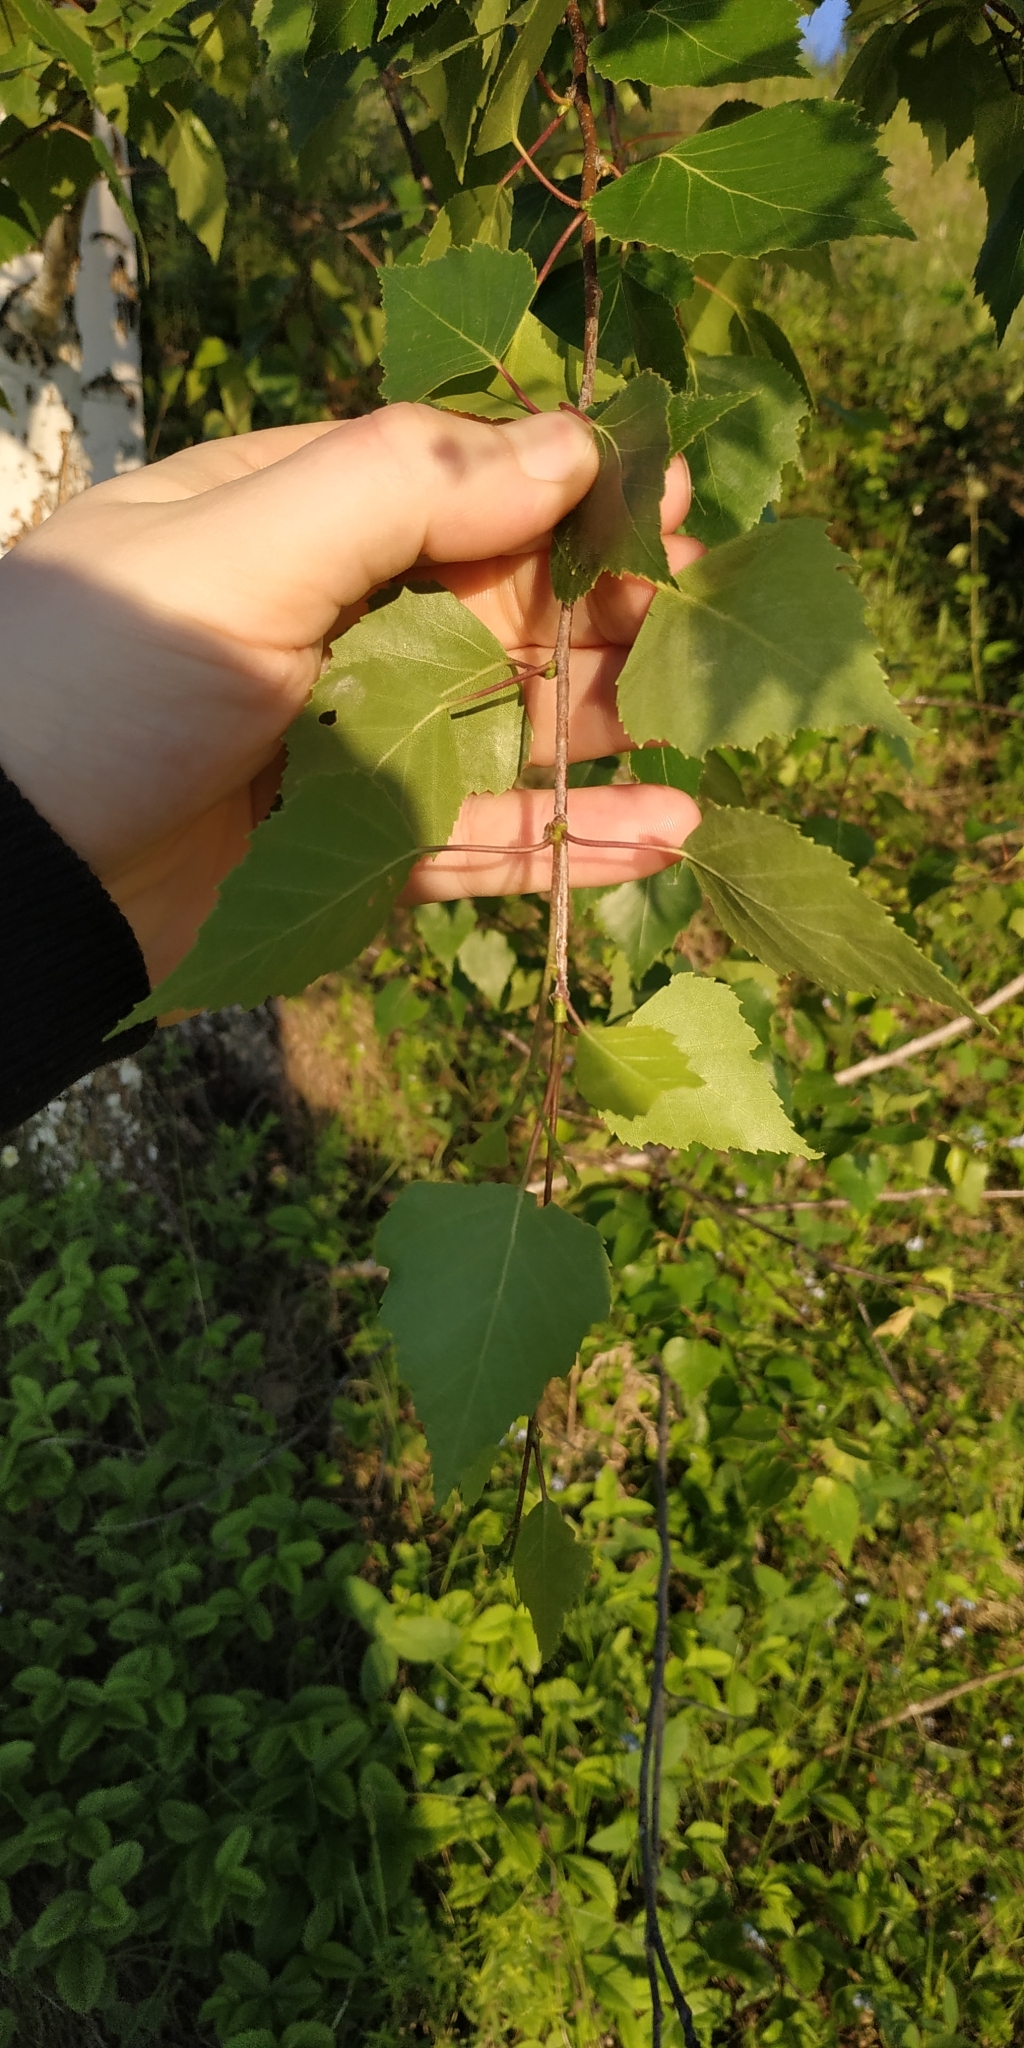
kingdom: Plantae
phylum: Tracheophyta
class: Magnoliopsida
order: Fagales
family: Betulaceae
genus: Betula
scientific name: Betula pendula
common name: Silver birch
